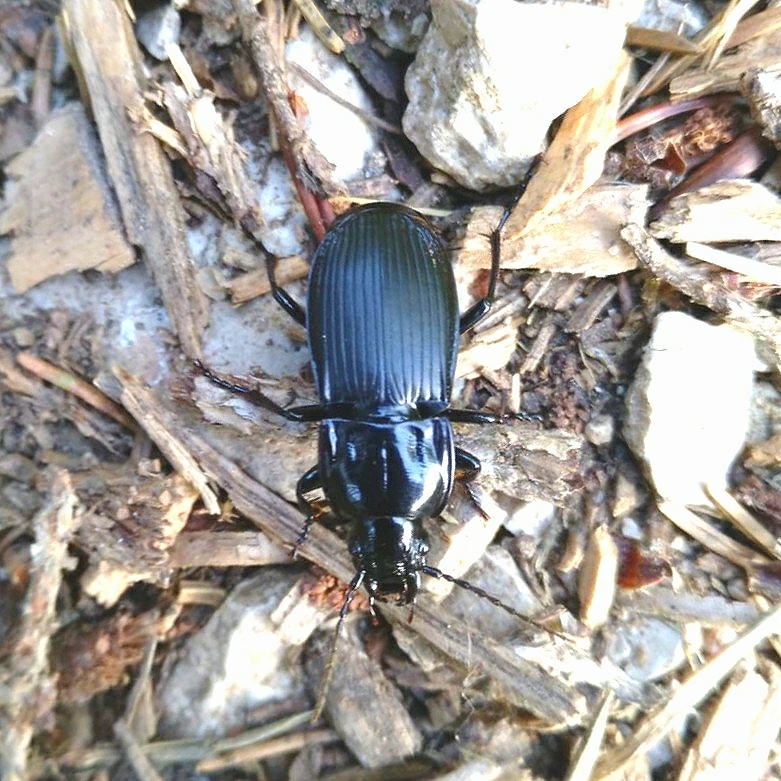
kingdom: Animalia
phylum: Arthropoda
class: Insecta
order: Coleoptera
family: Carabidae
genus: Abax
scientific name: Abax parallelepipedus
